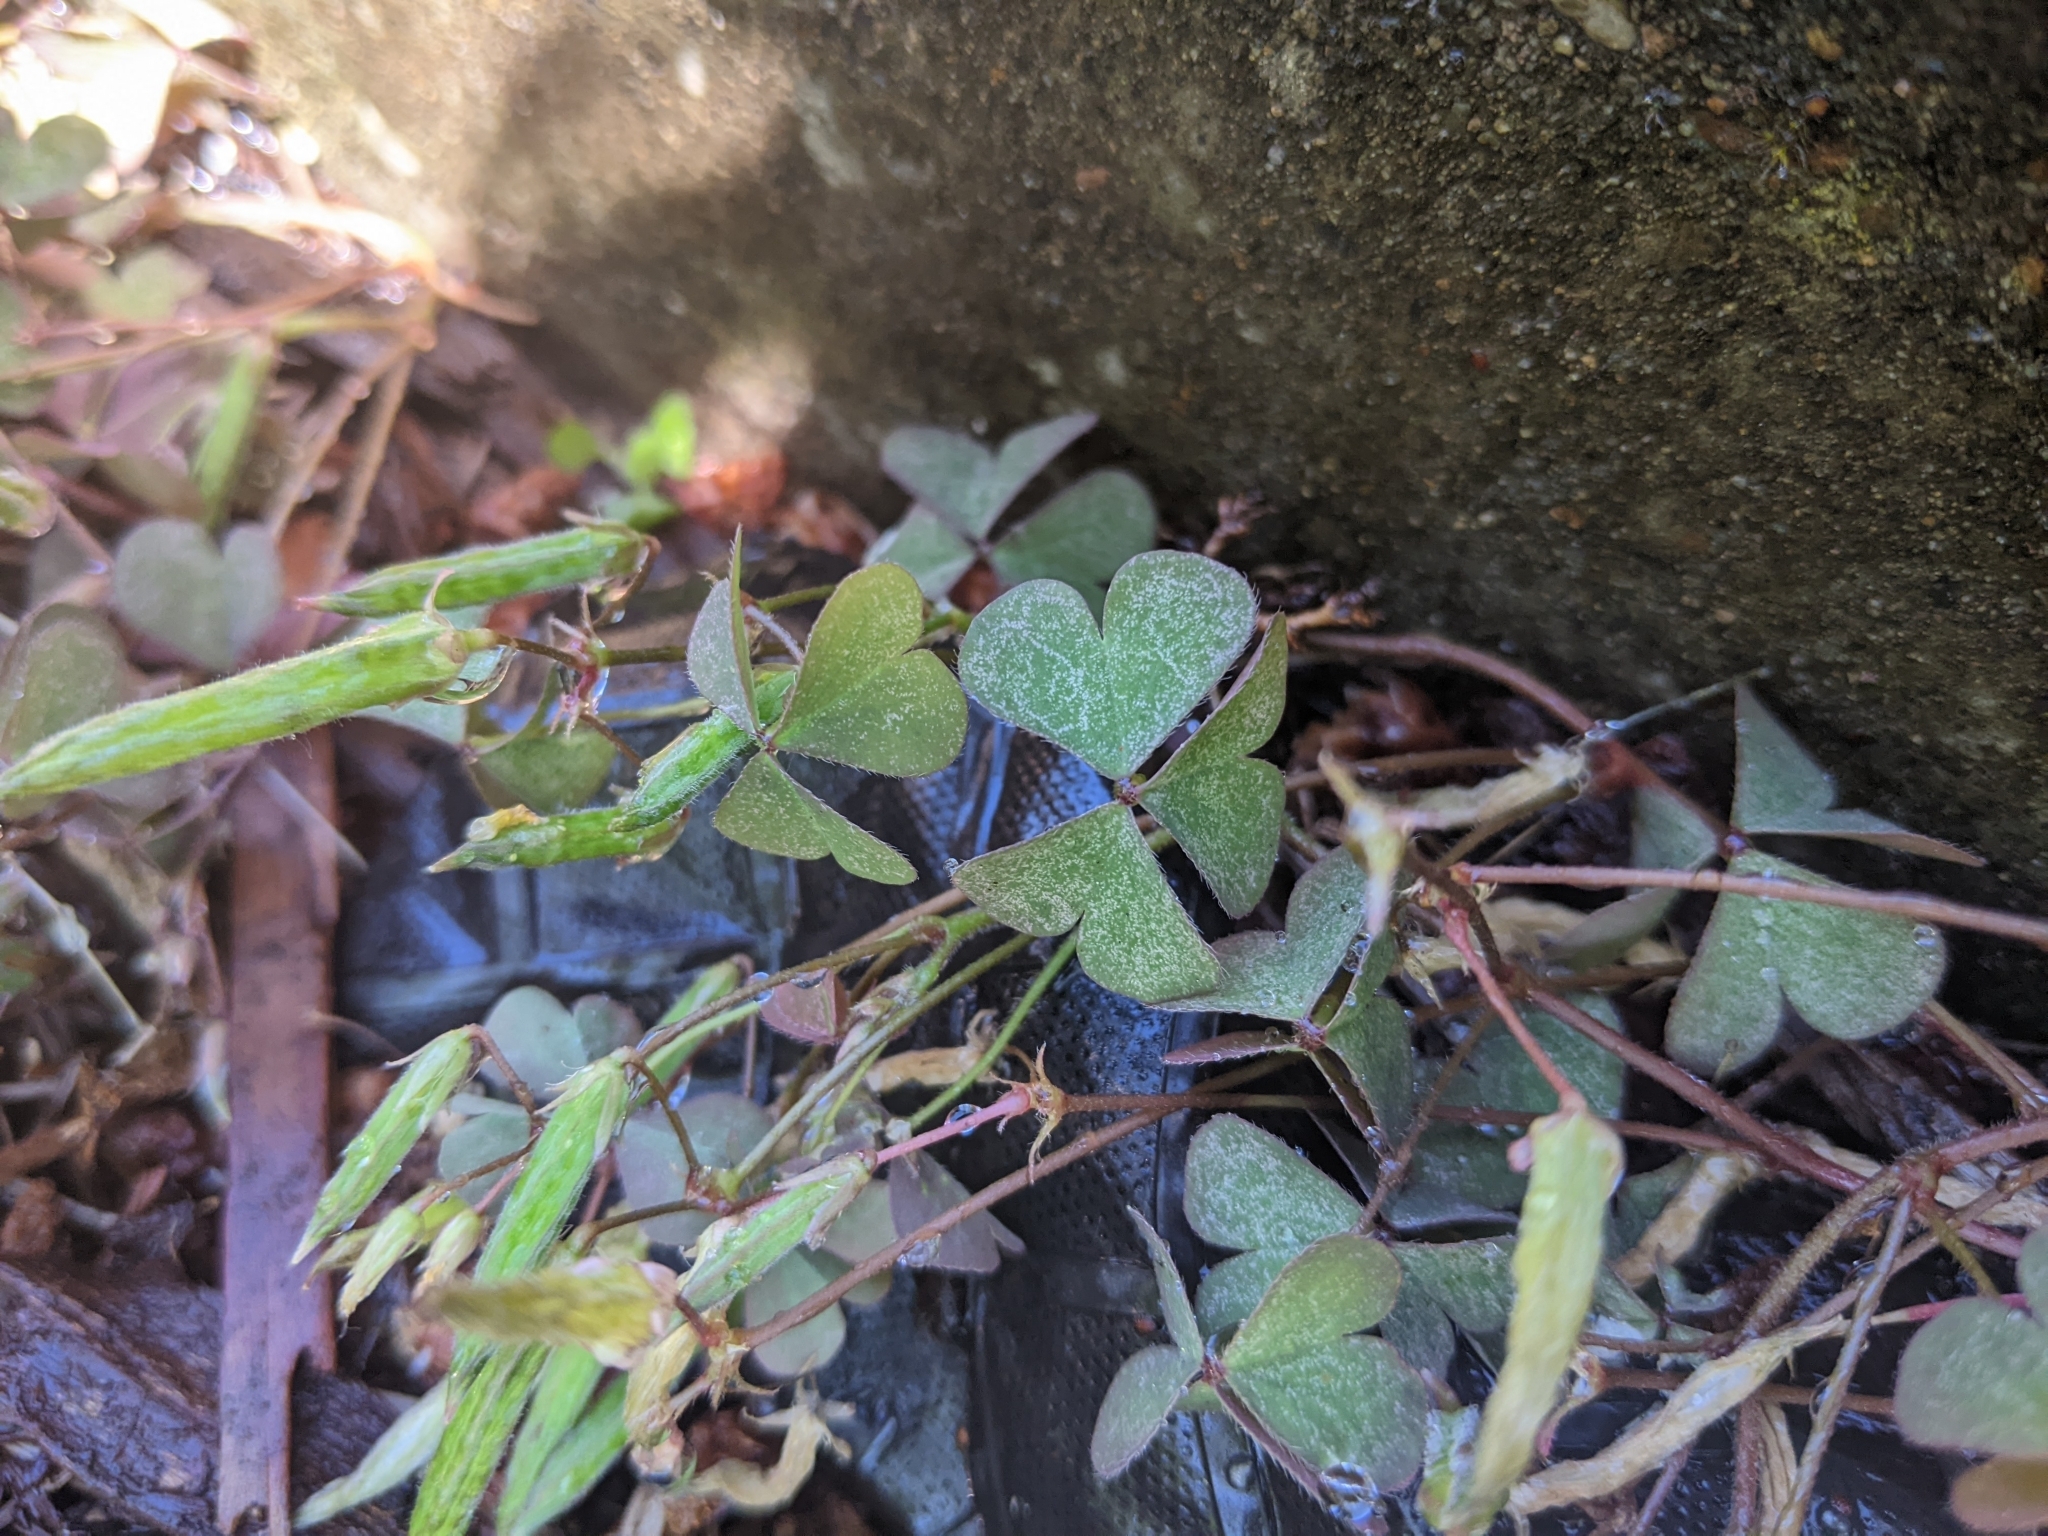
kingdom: Plantae
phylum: Tracheophyta
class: Magnoliopsida
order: Oxalidales
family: Oxalidaceae
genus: Oxalis
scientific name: Oxalis corniculata
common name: Procumbent yellow-sorrel
